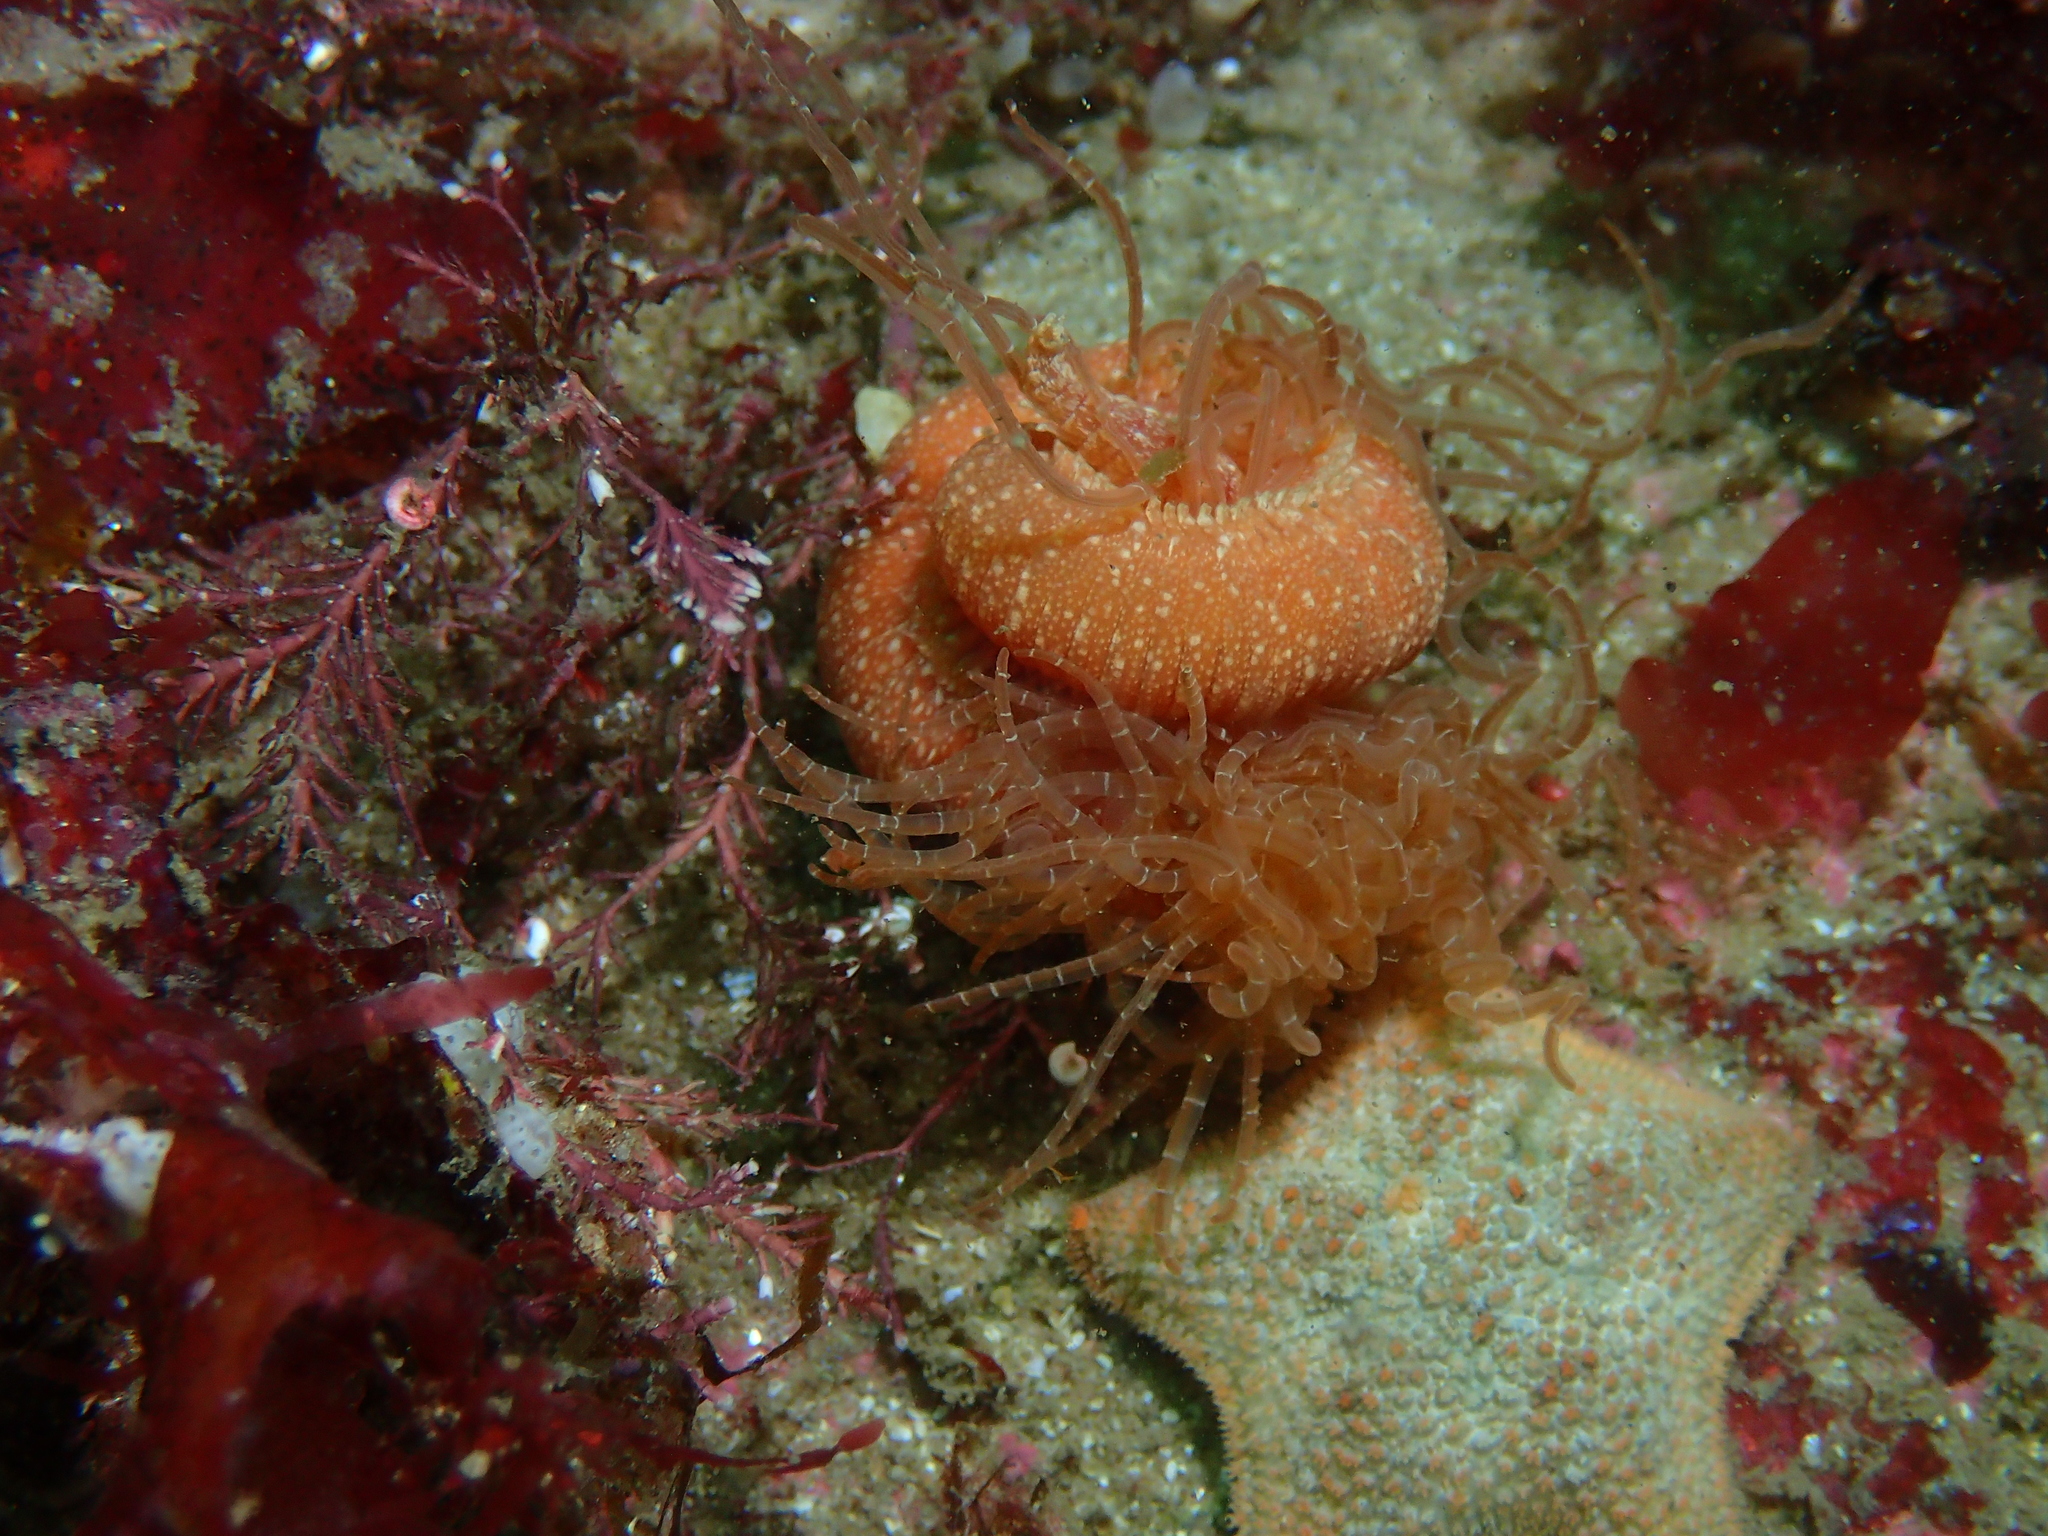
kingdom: Animalia
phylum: Annelida
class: Polychaeta
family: Terebellidae
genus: Eupolymnia
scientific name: Eupolymnia nebulosa
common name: Strawberry worm
